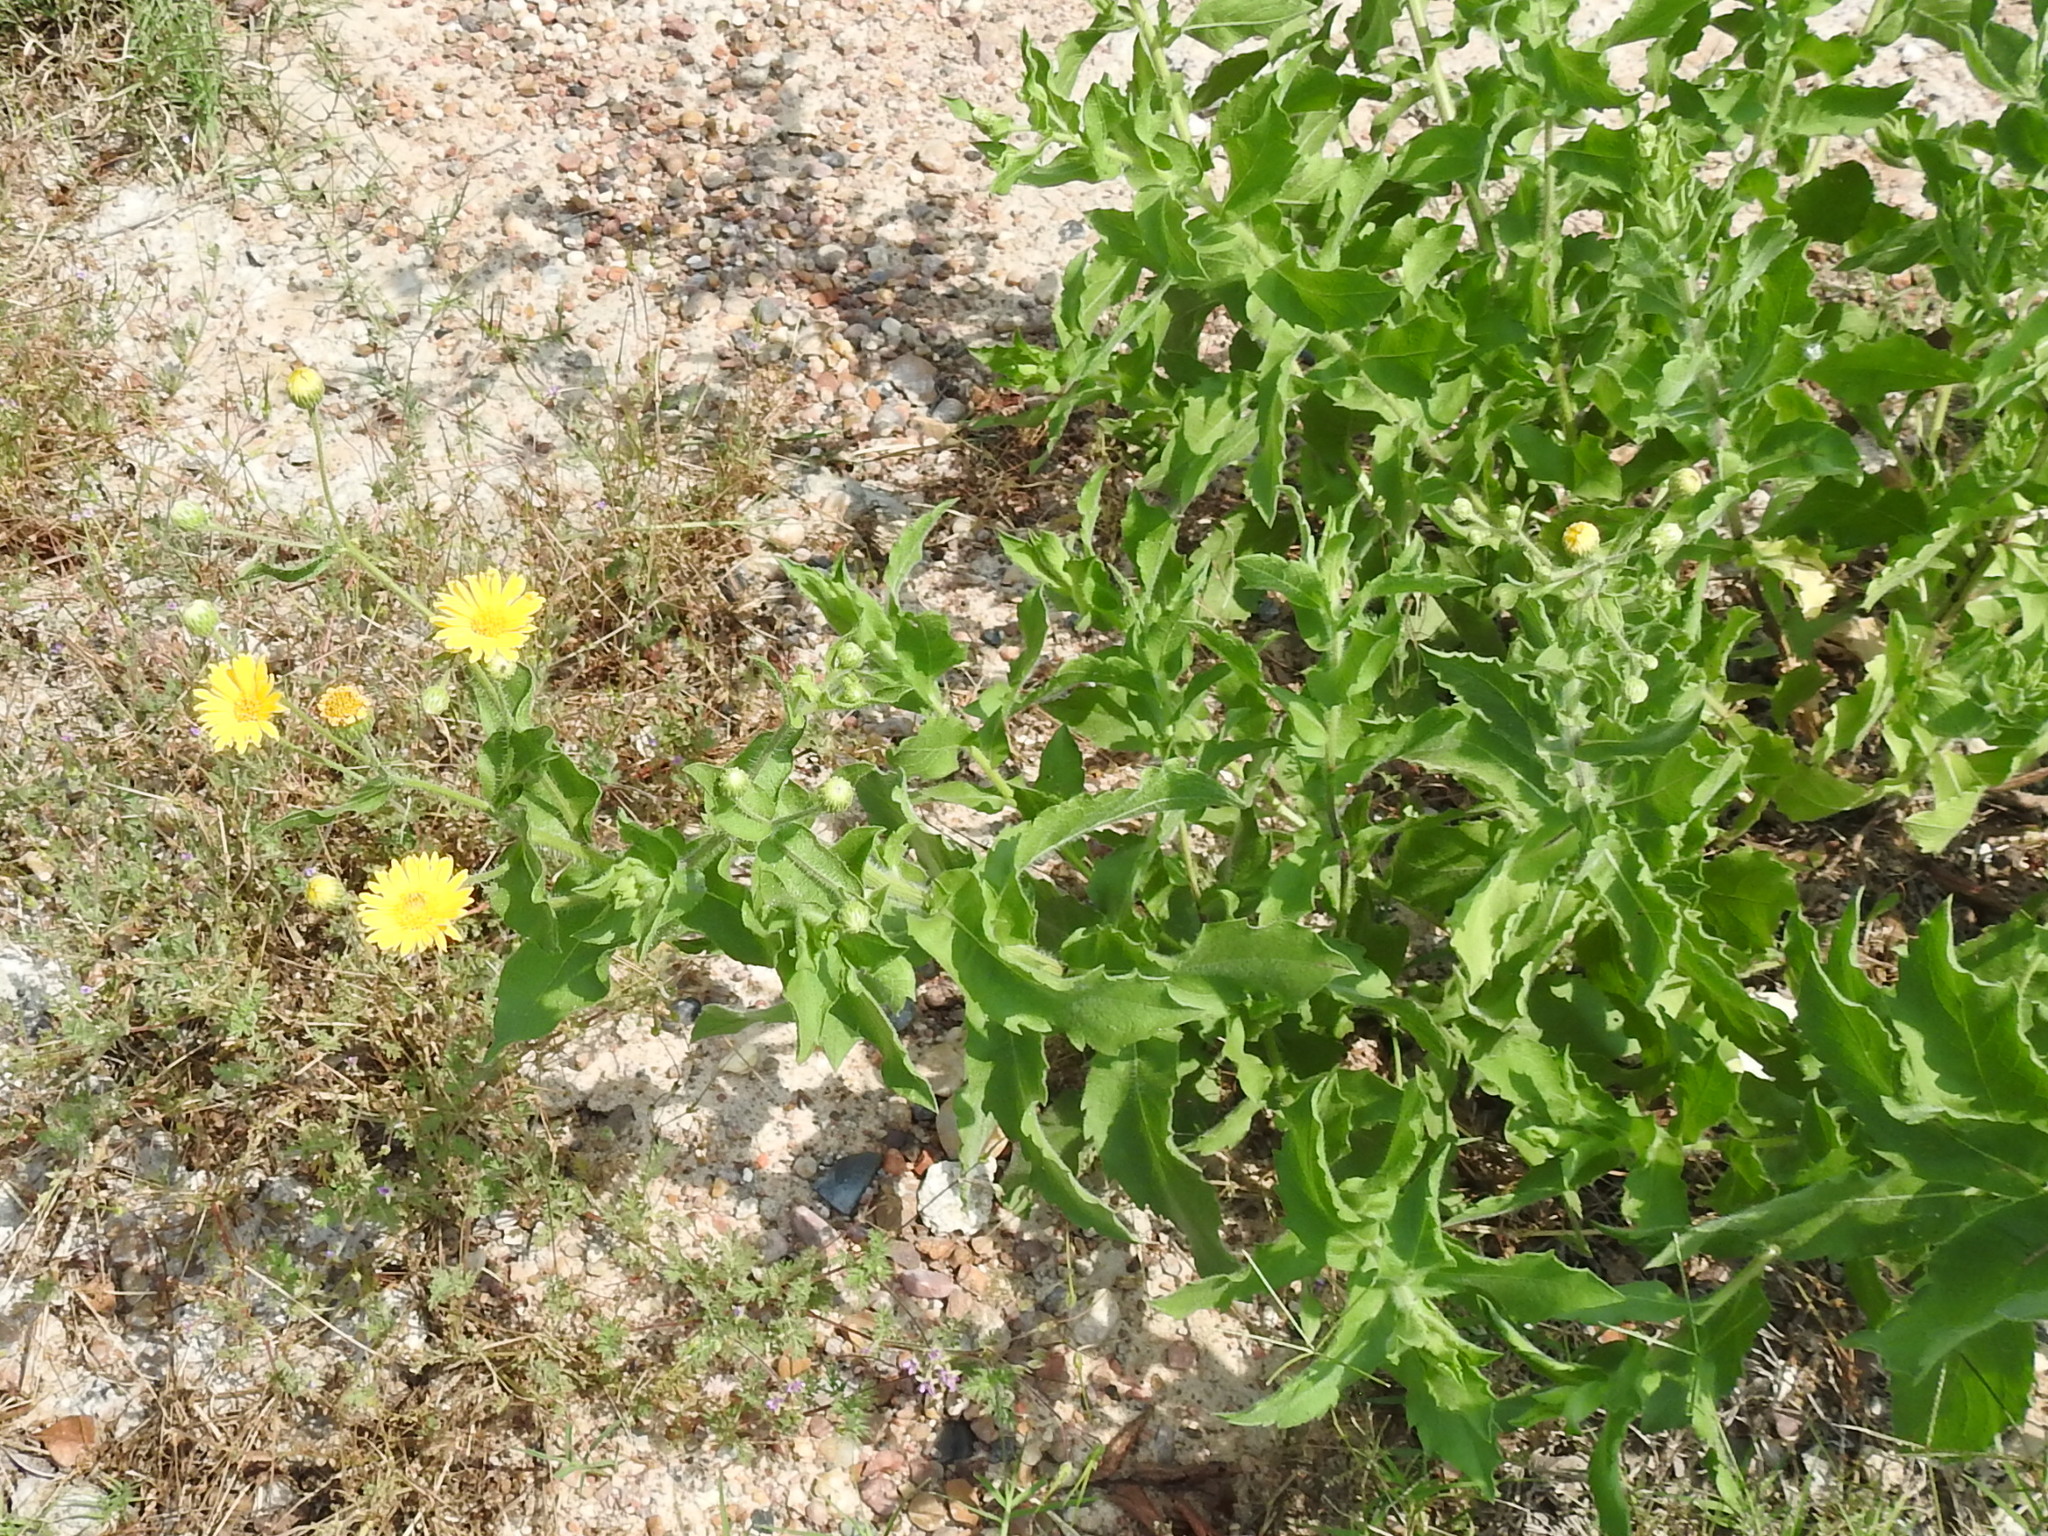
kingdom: Plantae
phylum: Tracheophyta
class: Magnoliopsida
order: Asterales
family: Asteraceae
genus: Heterotheca
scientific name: Heterotheca subaxillaris
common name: Camphorweed
